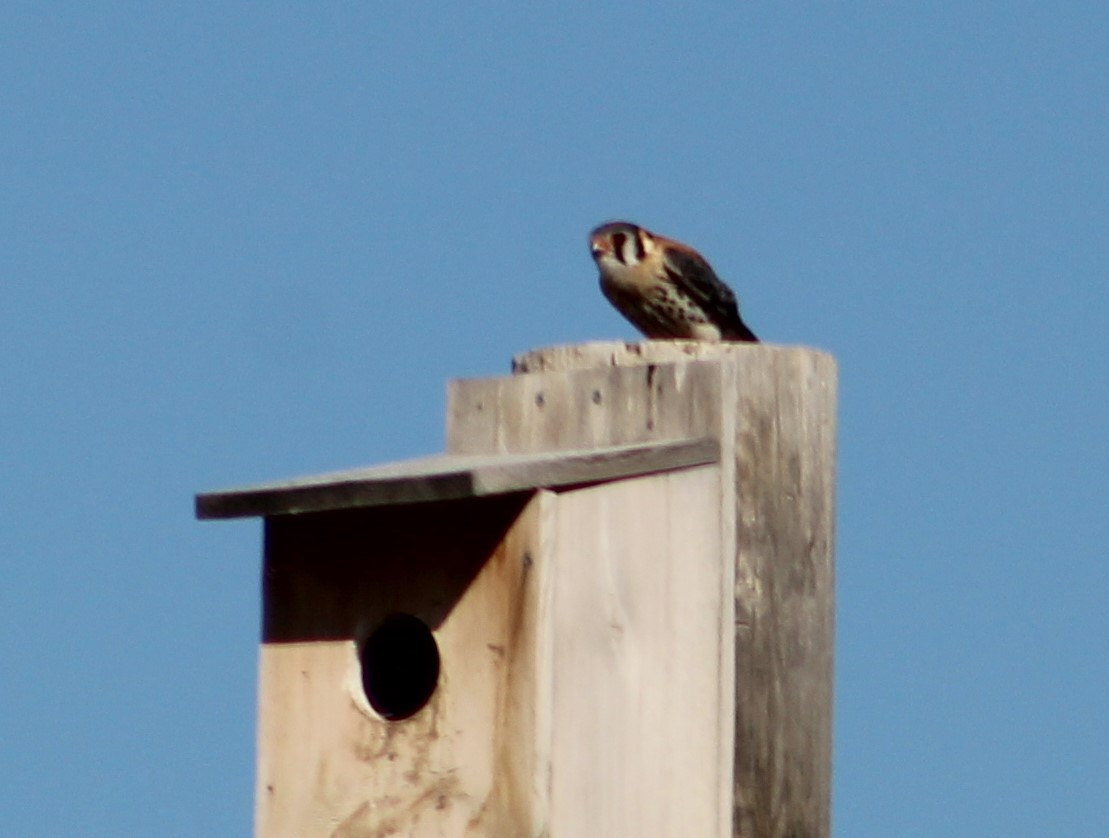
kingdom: Animalia
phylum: Chordata
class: Aves
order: Falconiformes
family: Falconidae
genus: Falco
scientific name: Falco sparverius
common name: American kestrel
